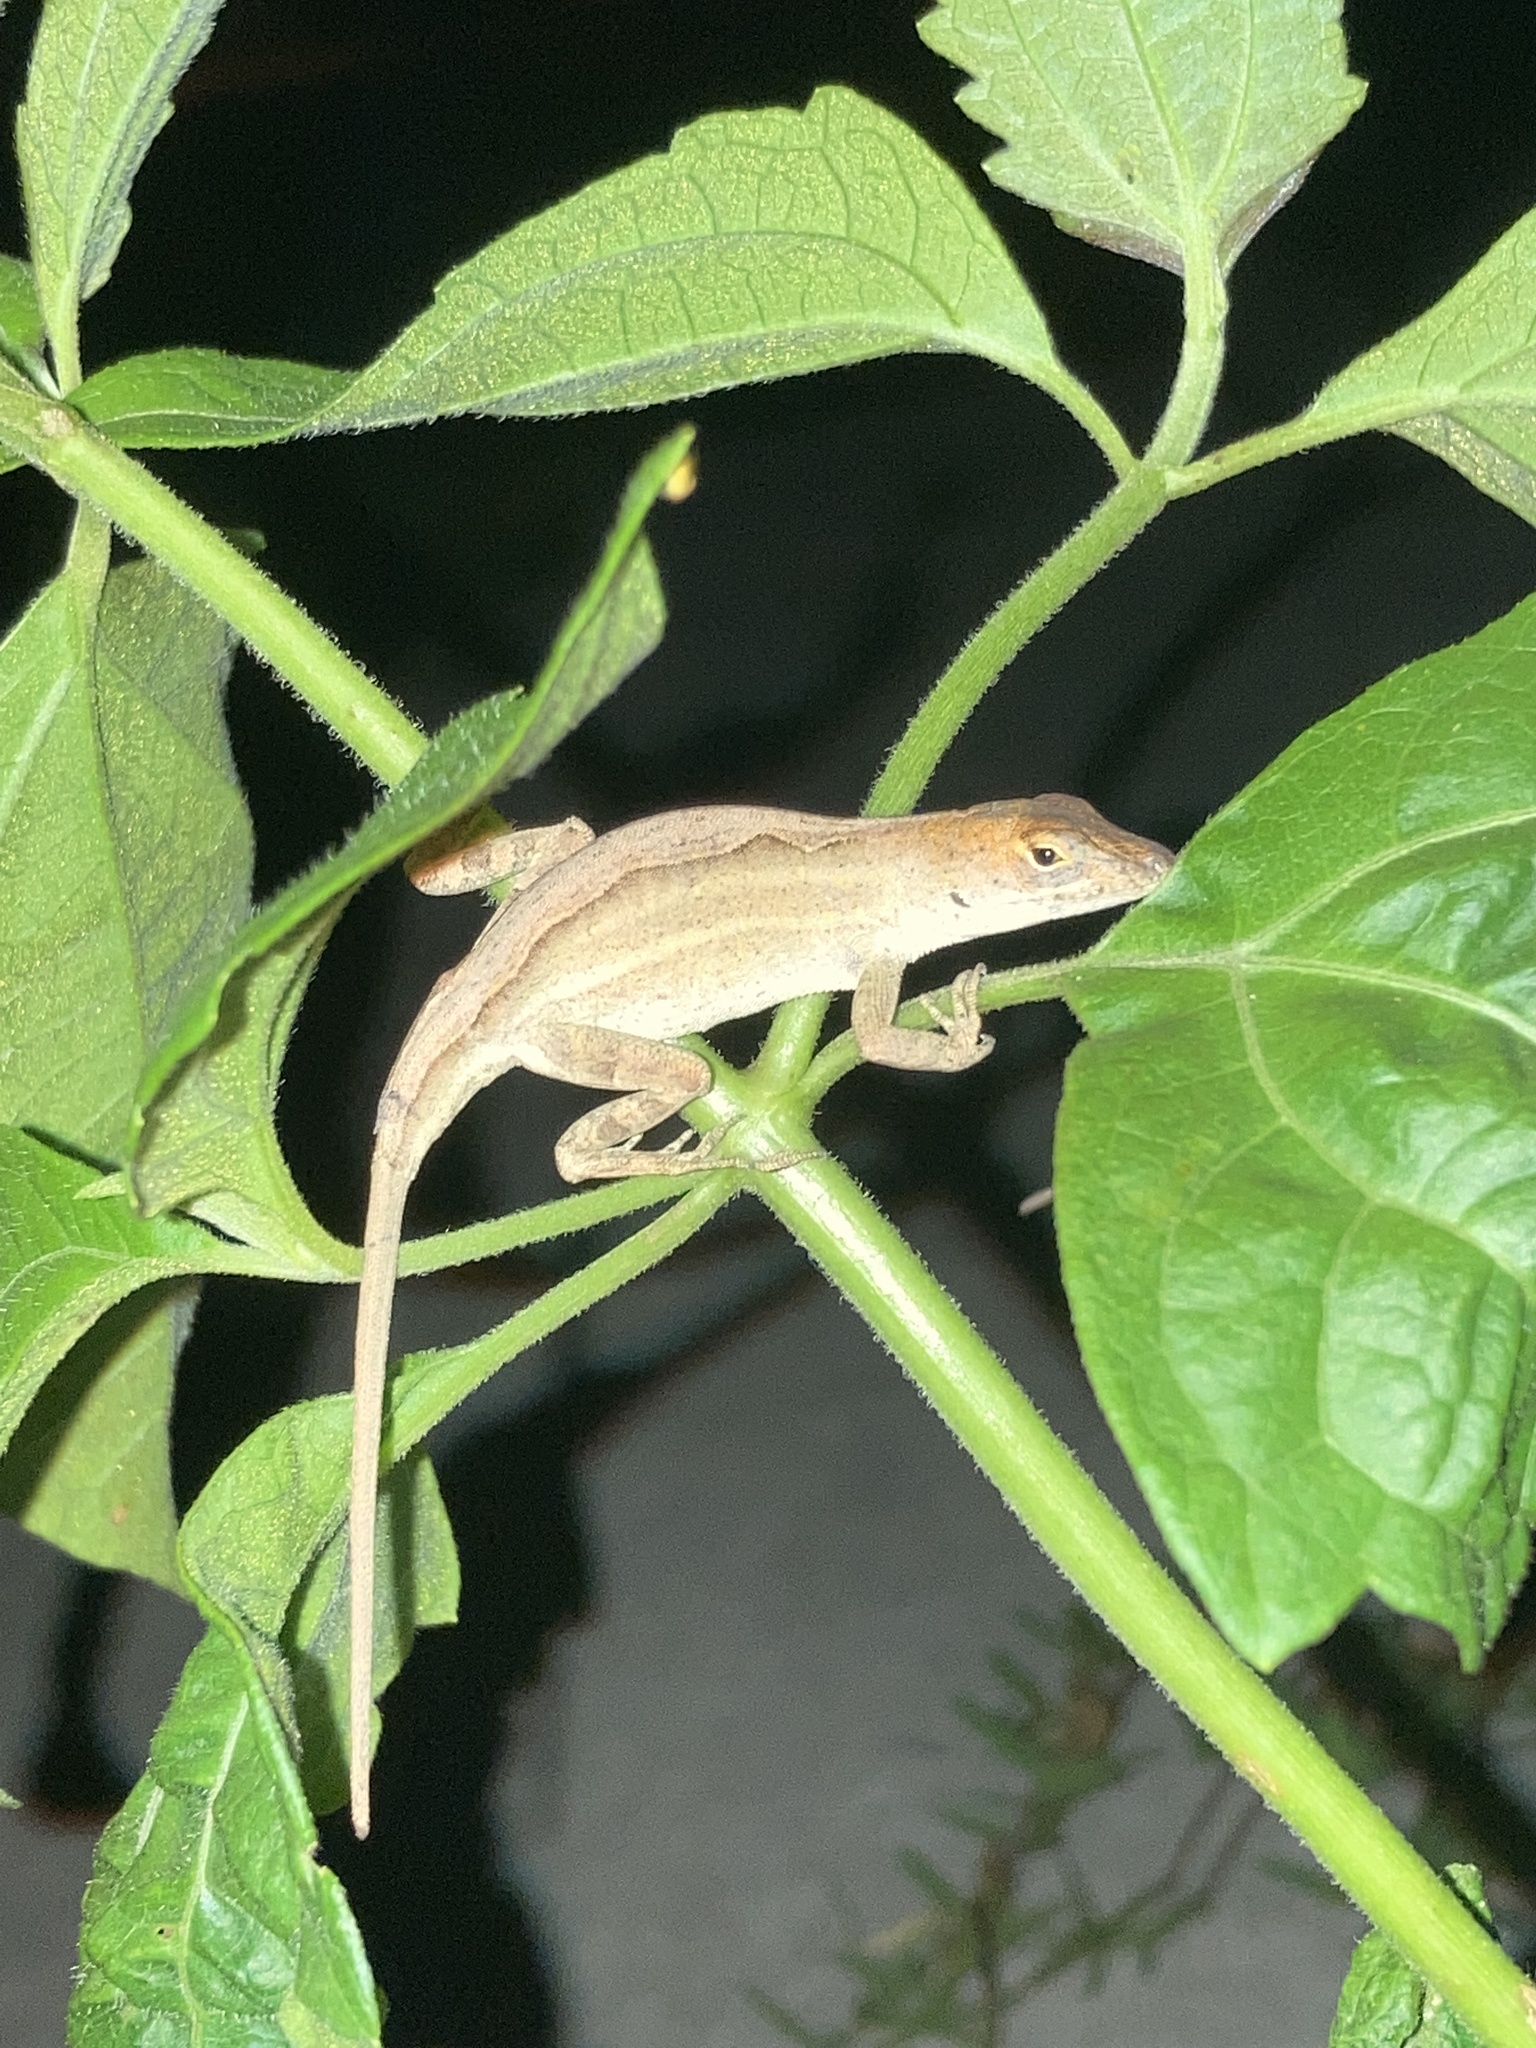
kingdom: Animalia
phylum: Chordata
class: Squamata
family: Dactyloidae
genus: Anolis
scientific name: Anolis sagrei
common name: Brown anole
